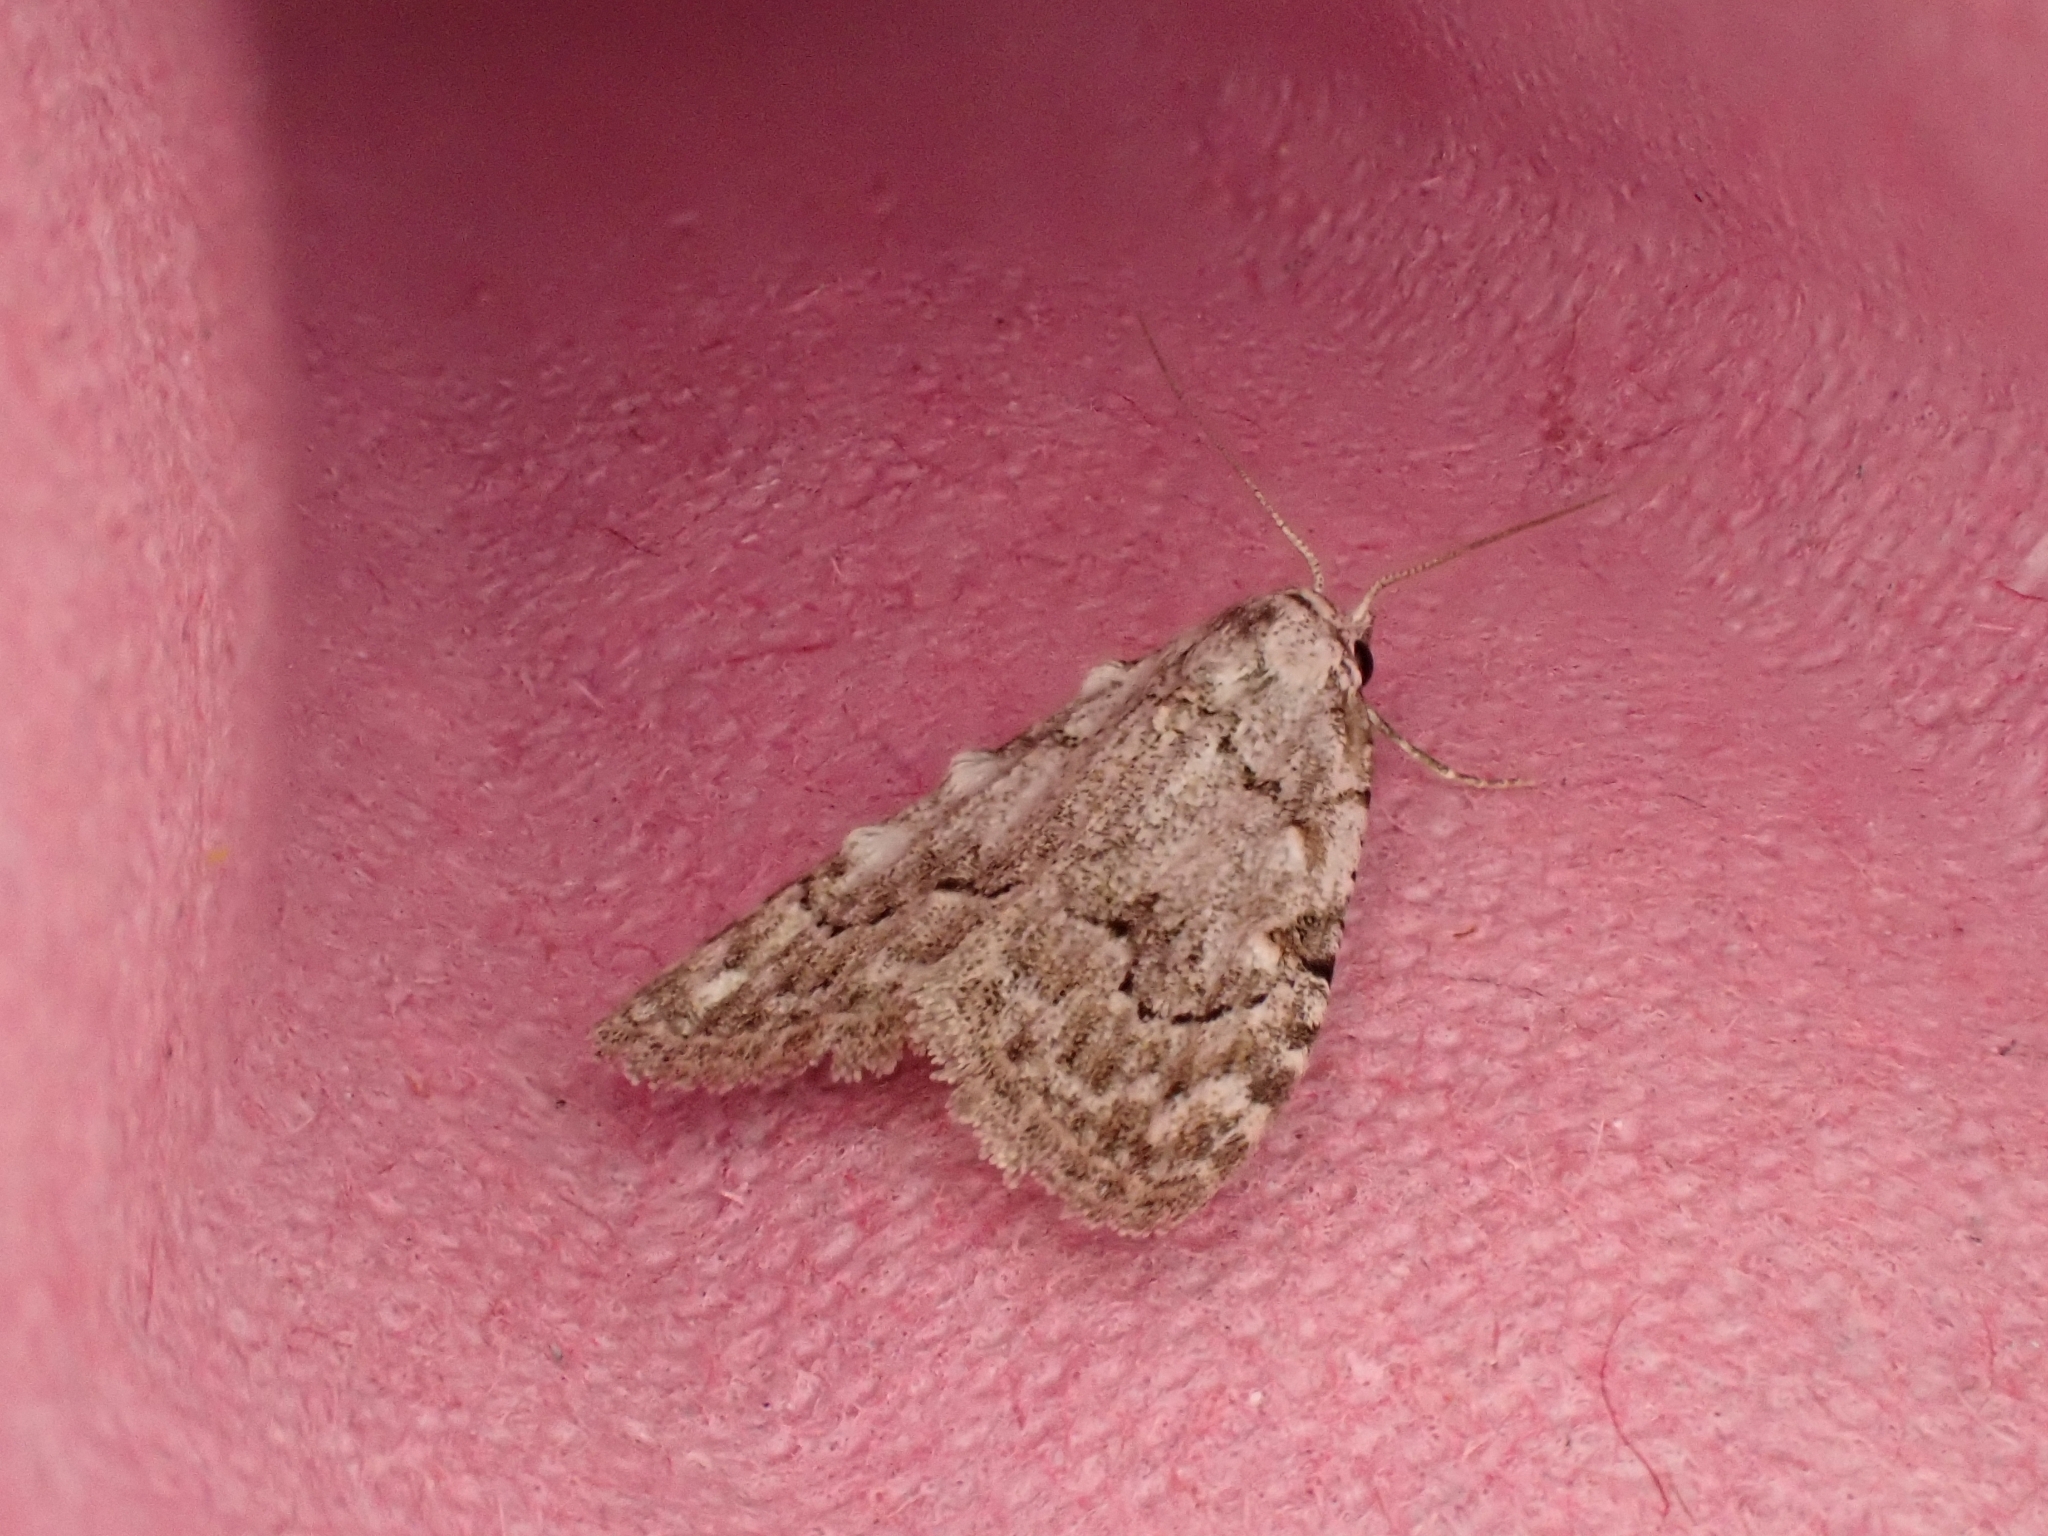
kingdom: Animalia
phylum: Arthropoda
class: Insecta
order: Lepidoptera
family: Nolidae
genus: Nola
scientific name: Nola confusalis
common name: Least black arches
